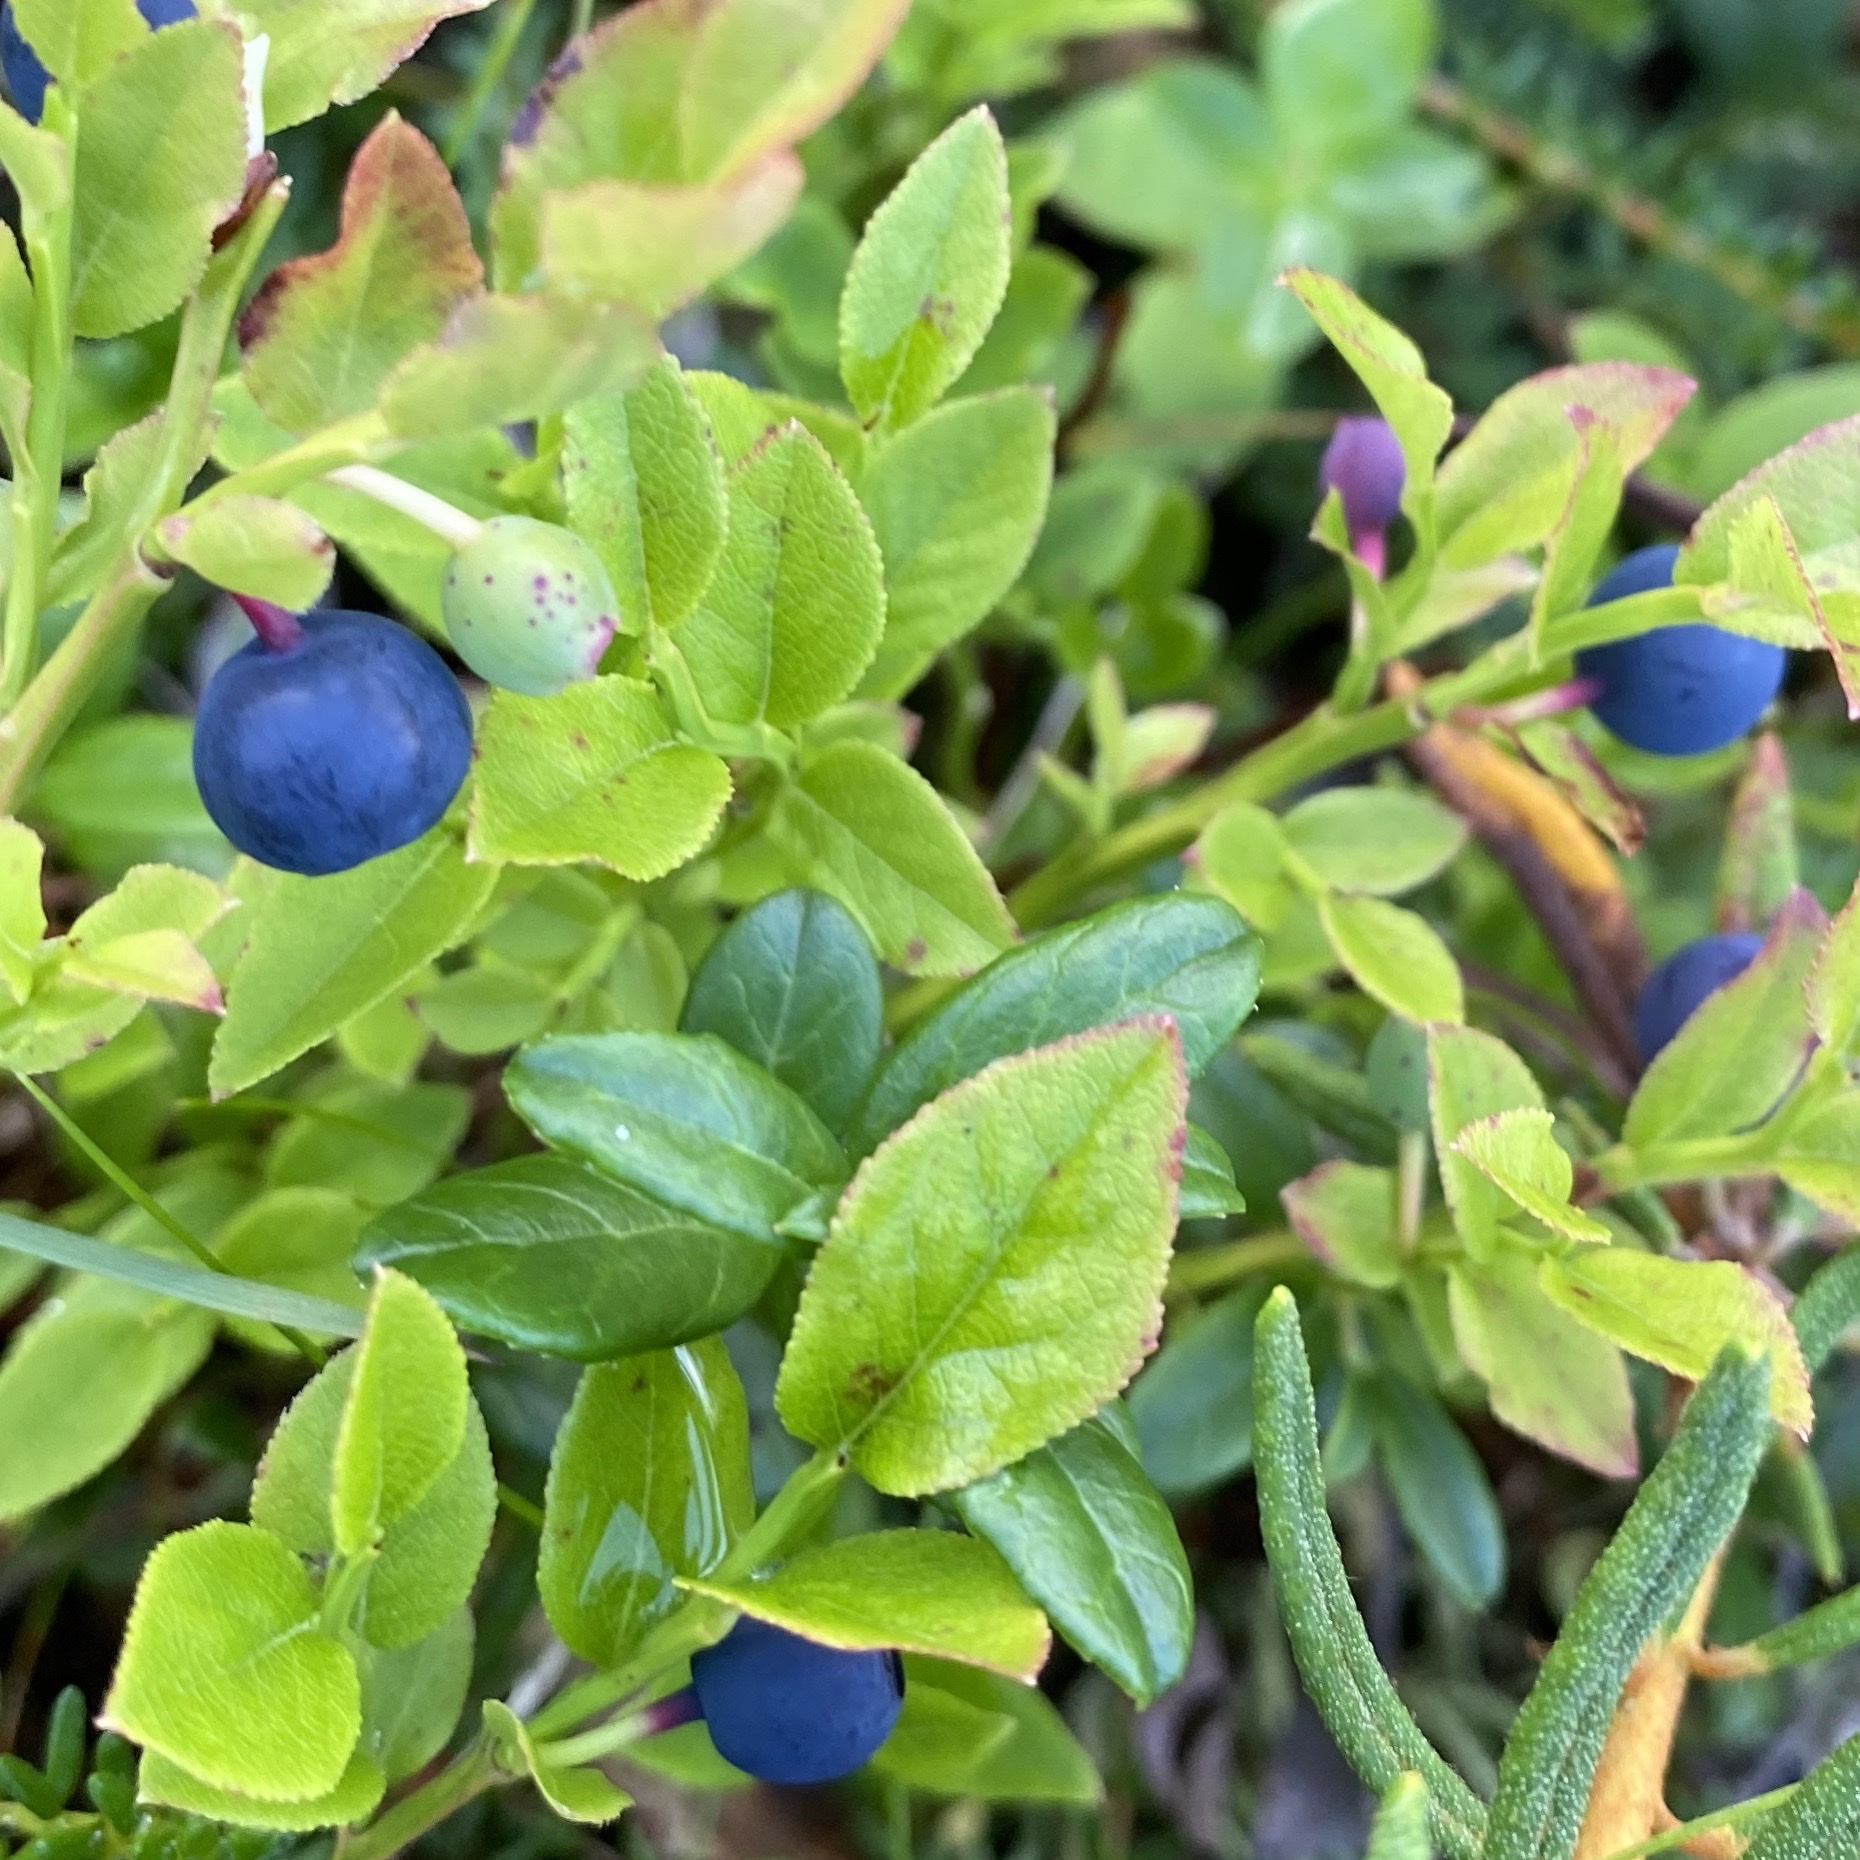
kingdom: Plantae
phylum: Tracheophyta
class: Magnoliopsida
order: Ericales
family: Ericaceae
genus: Vaccinium
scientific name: Vaccinium myrtillus
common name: Bilberry
